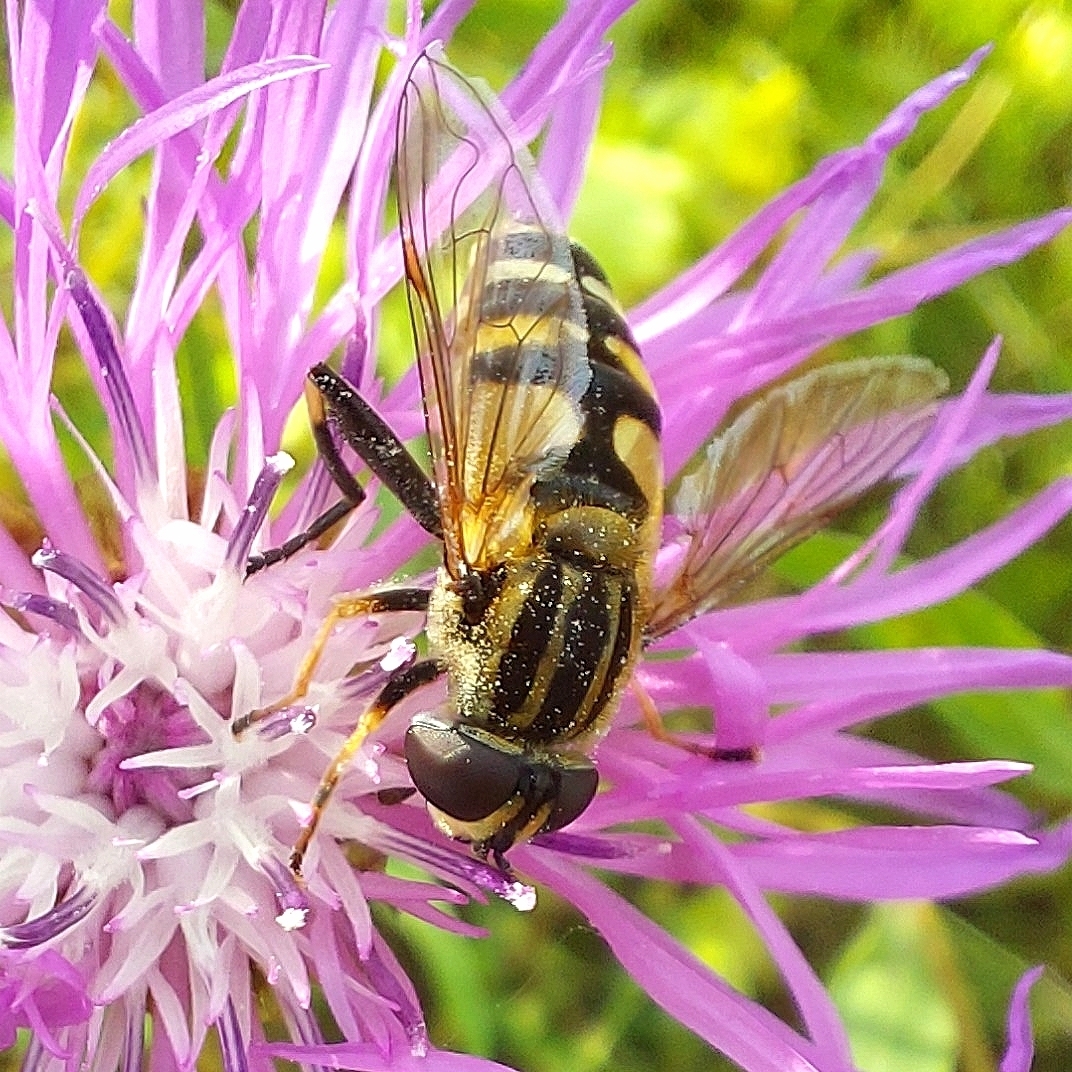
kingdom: Animalia
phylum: Arthropoda
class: Insecta
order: Diptera
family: Syrphidae
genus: Helophilus
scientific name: Helophilus affinis
